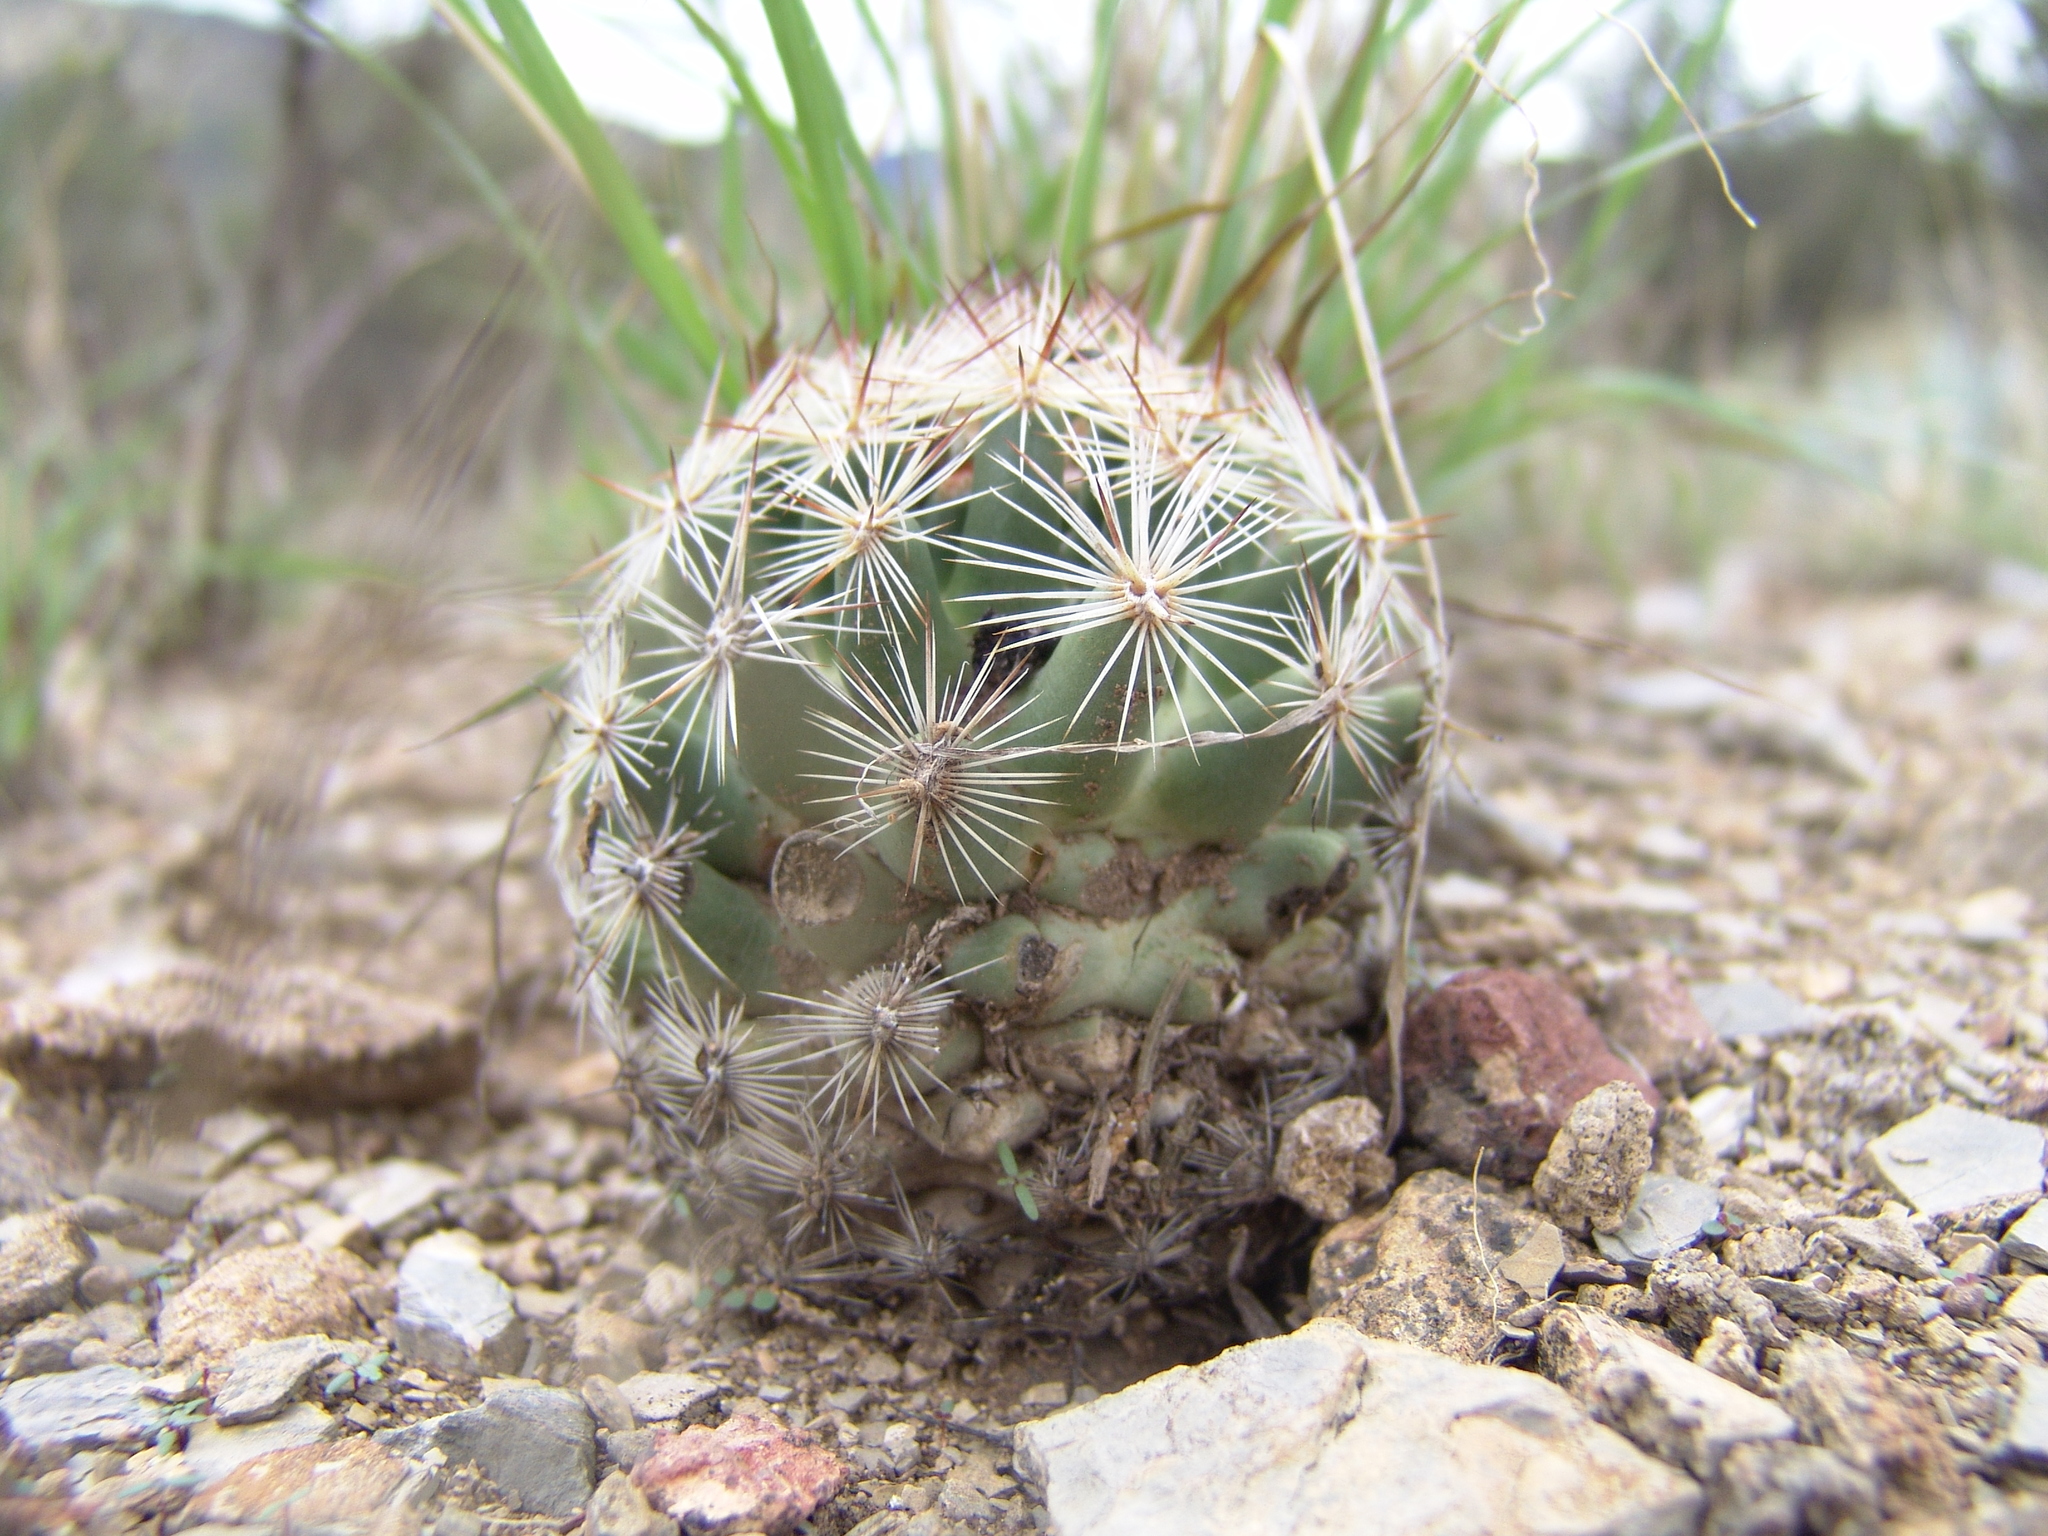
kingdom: Plantae
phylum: Tracheophyta
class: Magnoliopsida
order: Caryophyllales
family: Cactaceae
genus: Pelecyphora
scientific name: Pelecyphora vivipara
